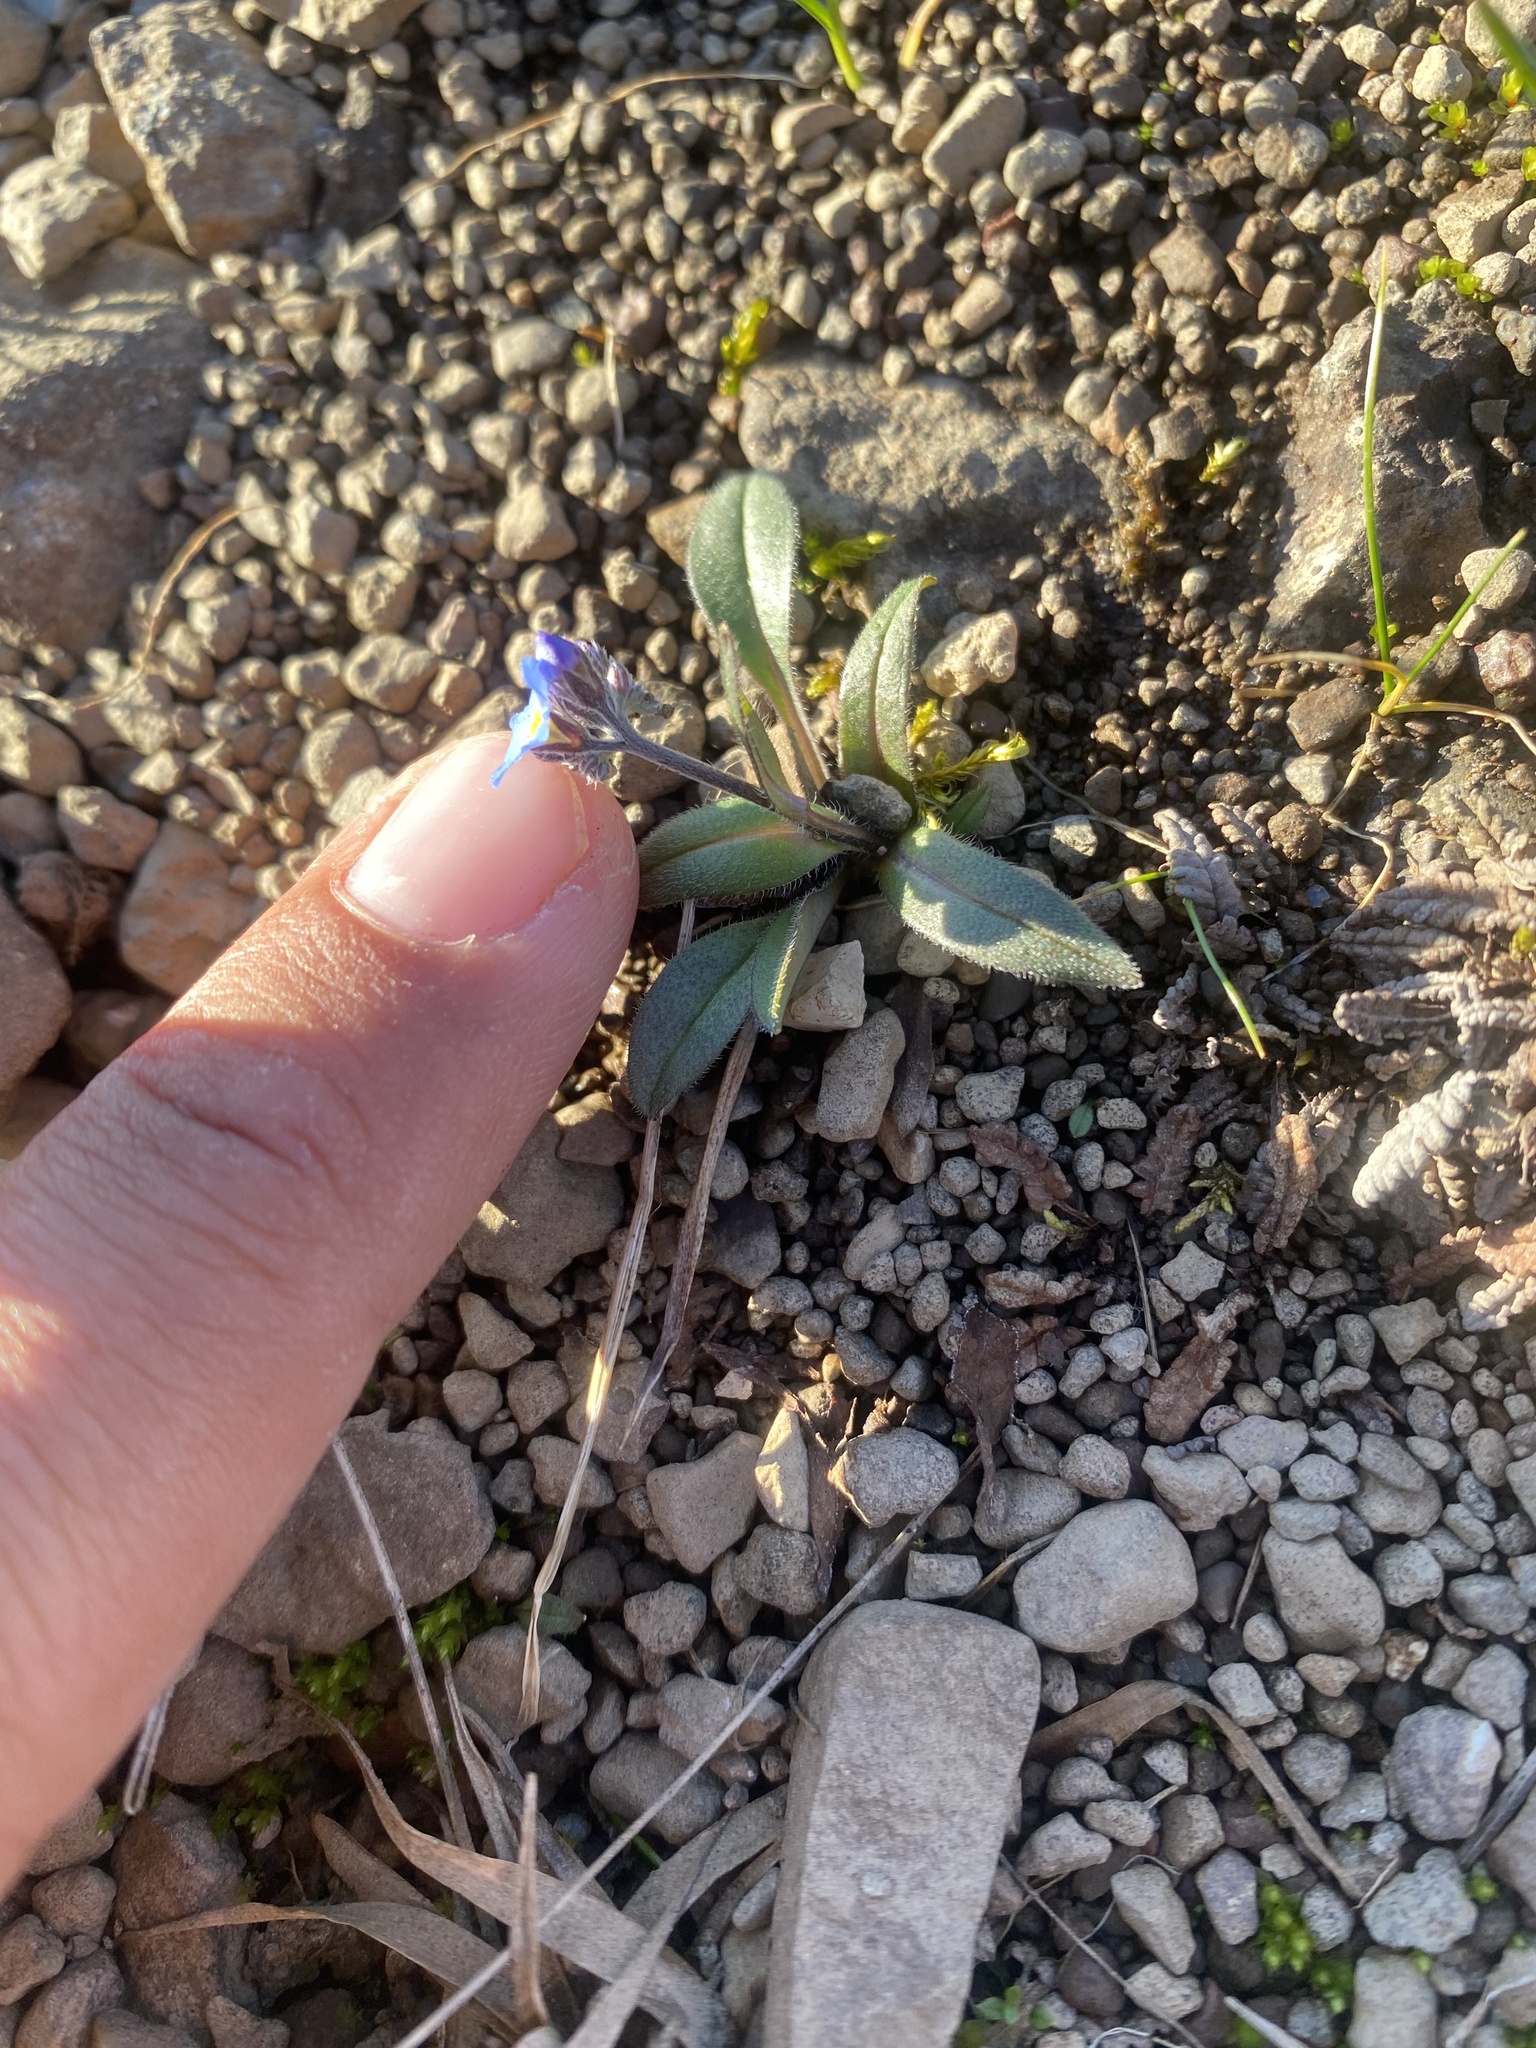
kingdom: Plantae
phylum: Tracheophyta
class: Magnoliopsida
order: Boraginales
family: Boraginaceae
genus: Myosotis
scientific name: Myosotis asiatica
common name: Asian forget-me-not
